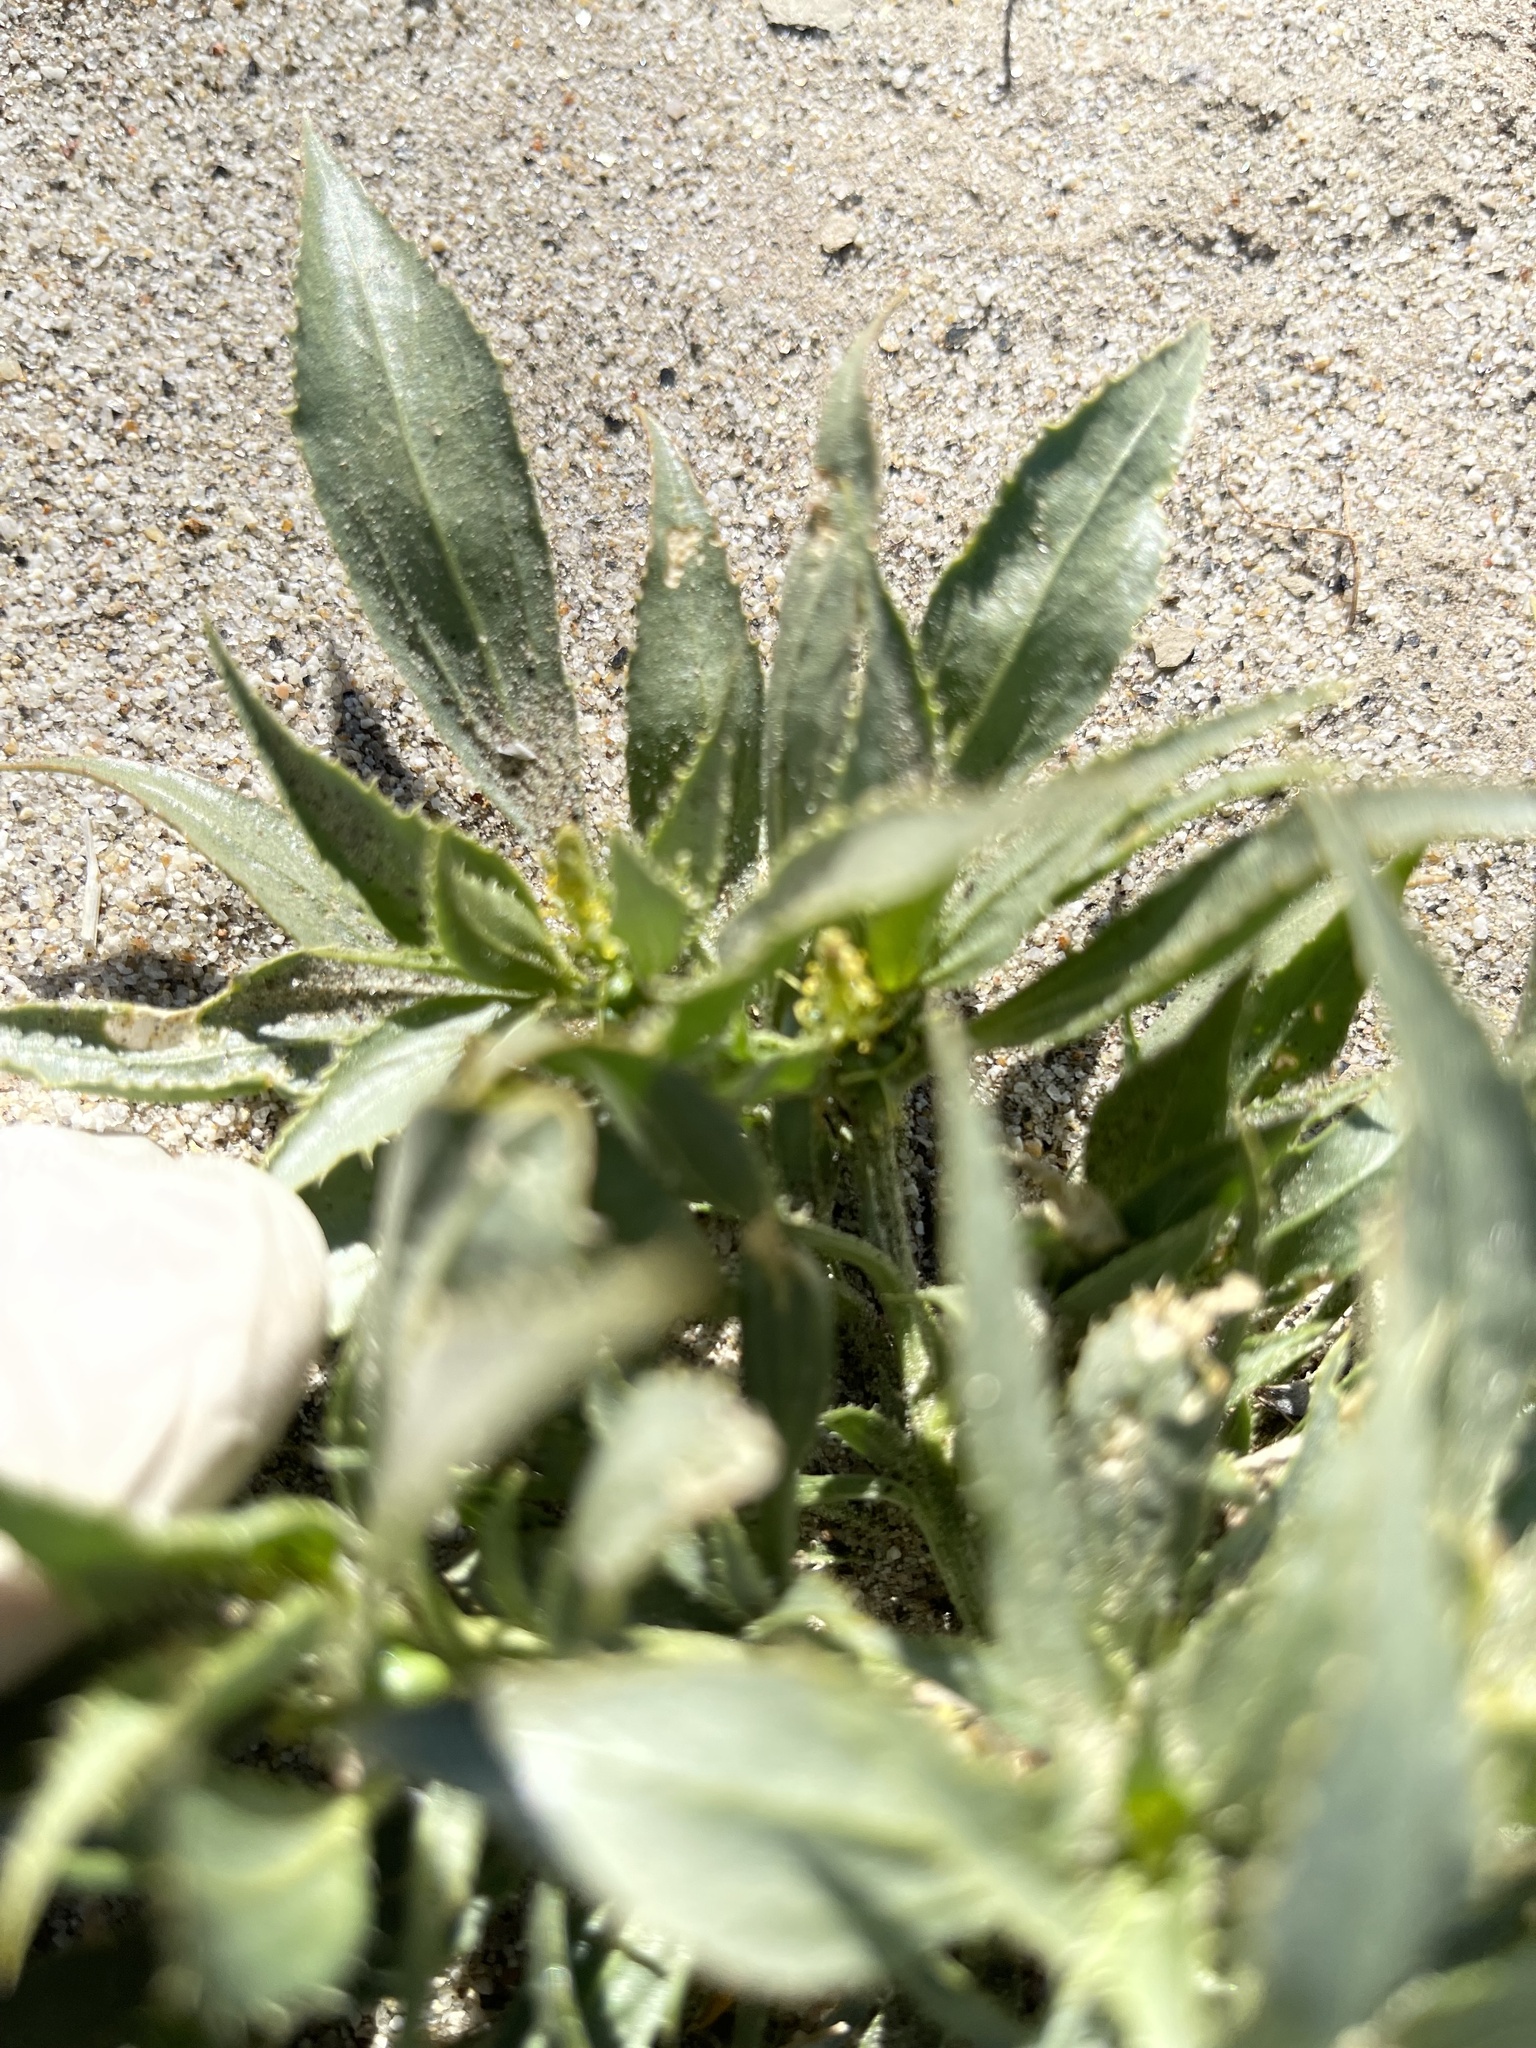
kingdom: Plantae
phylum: Tracheophyta
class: Magnoliopsida
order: Malpighiales
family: Euphorbiaceae
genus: Stillingia
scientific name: Stillingia spinulosa
